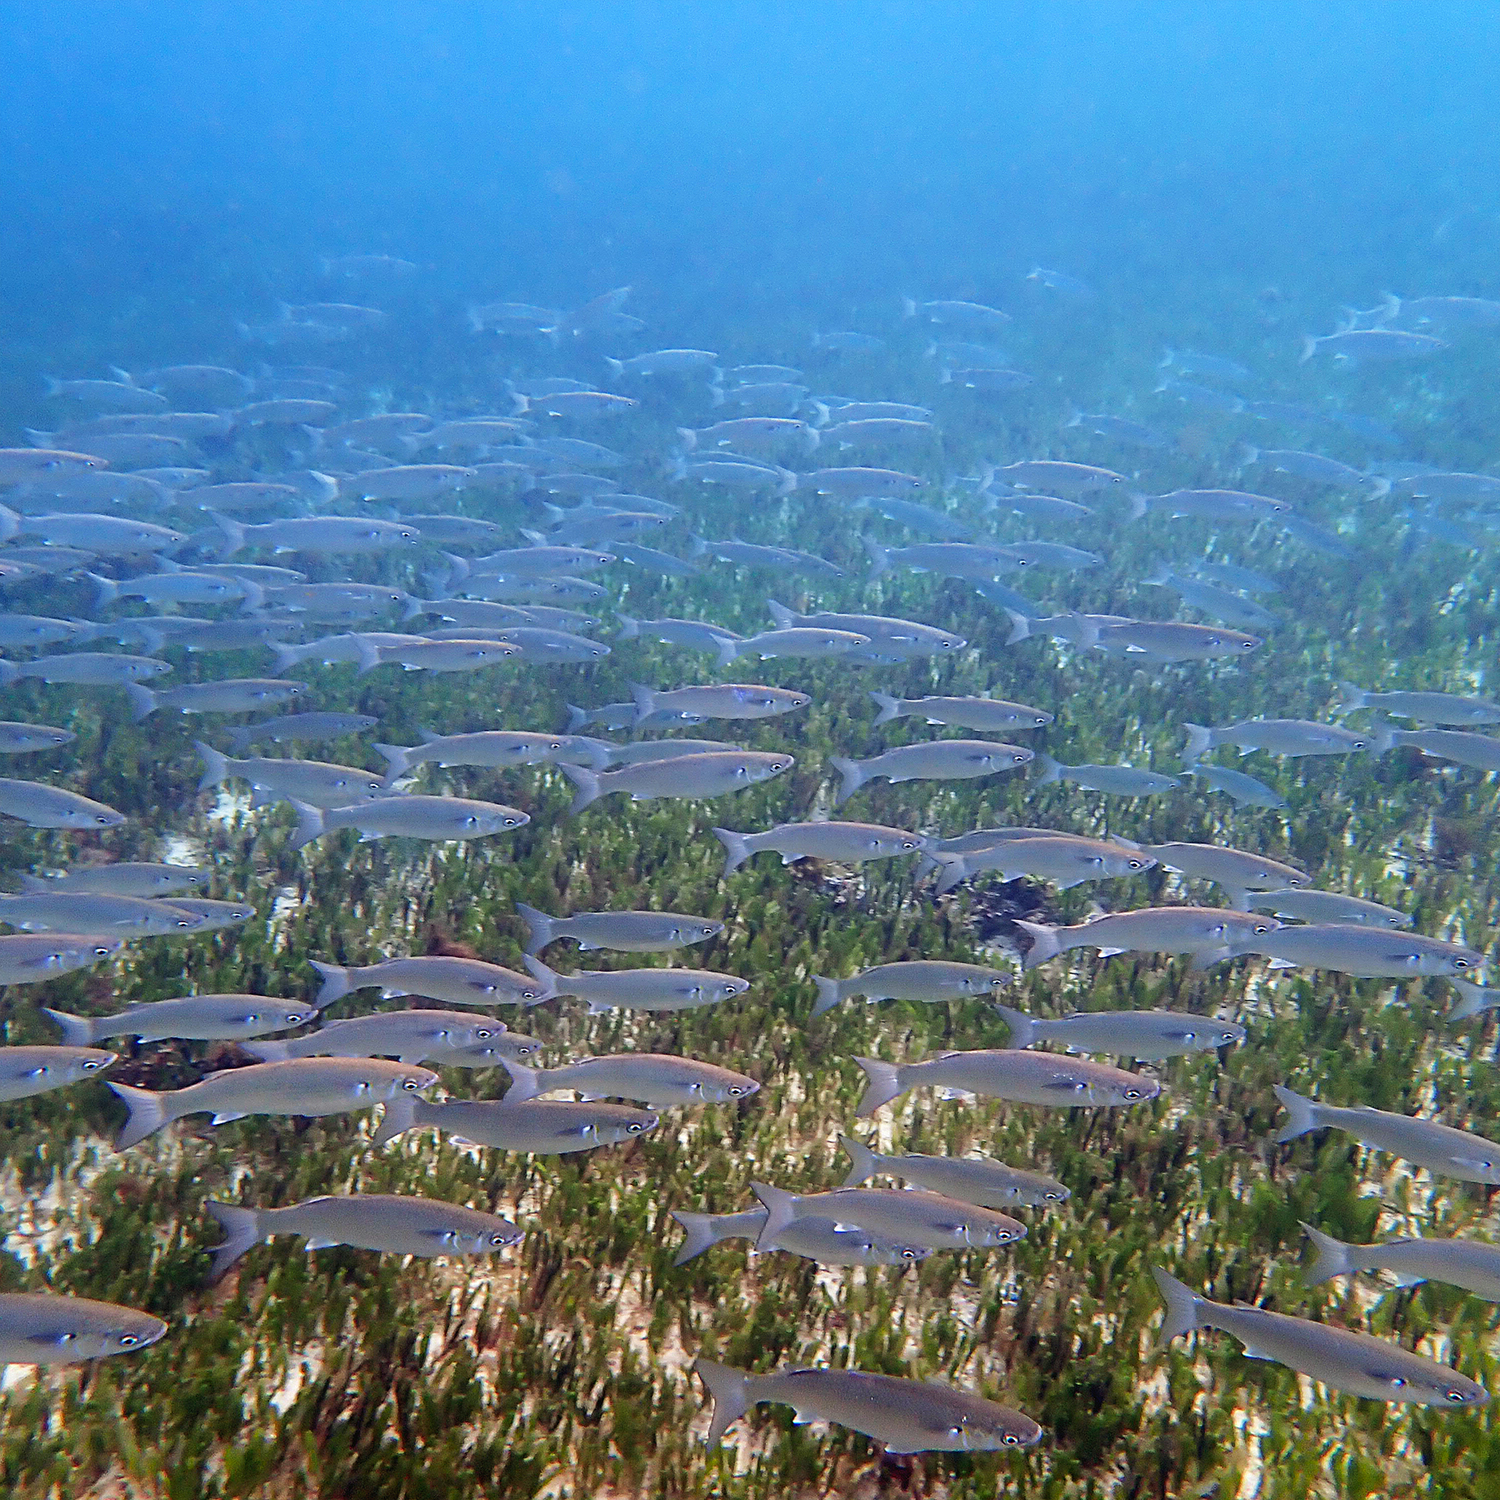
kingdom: Animalia
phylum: Chordata
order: Mugiliformes
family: Mugilidae
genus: Myxus
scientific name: Myxus elongatus
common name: Sand grey mullet
